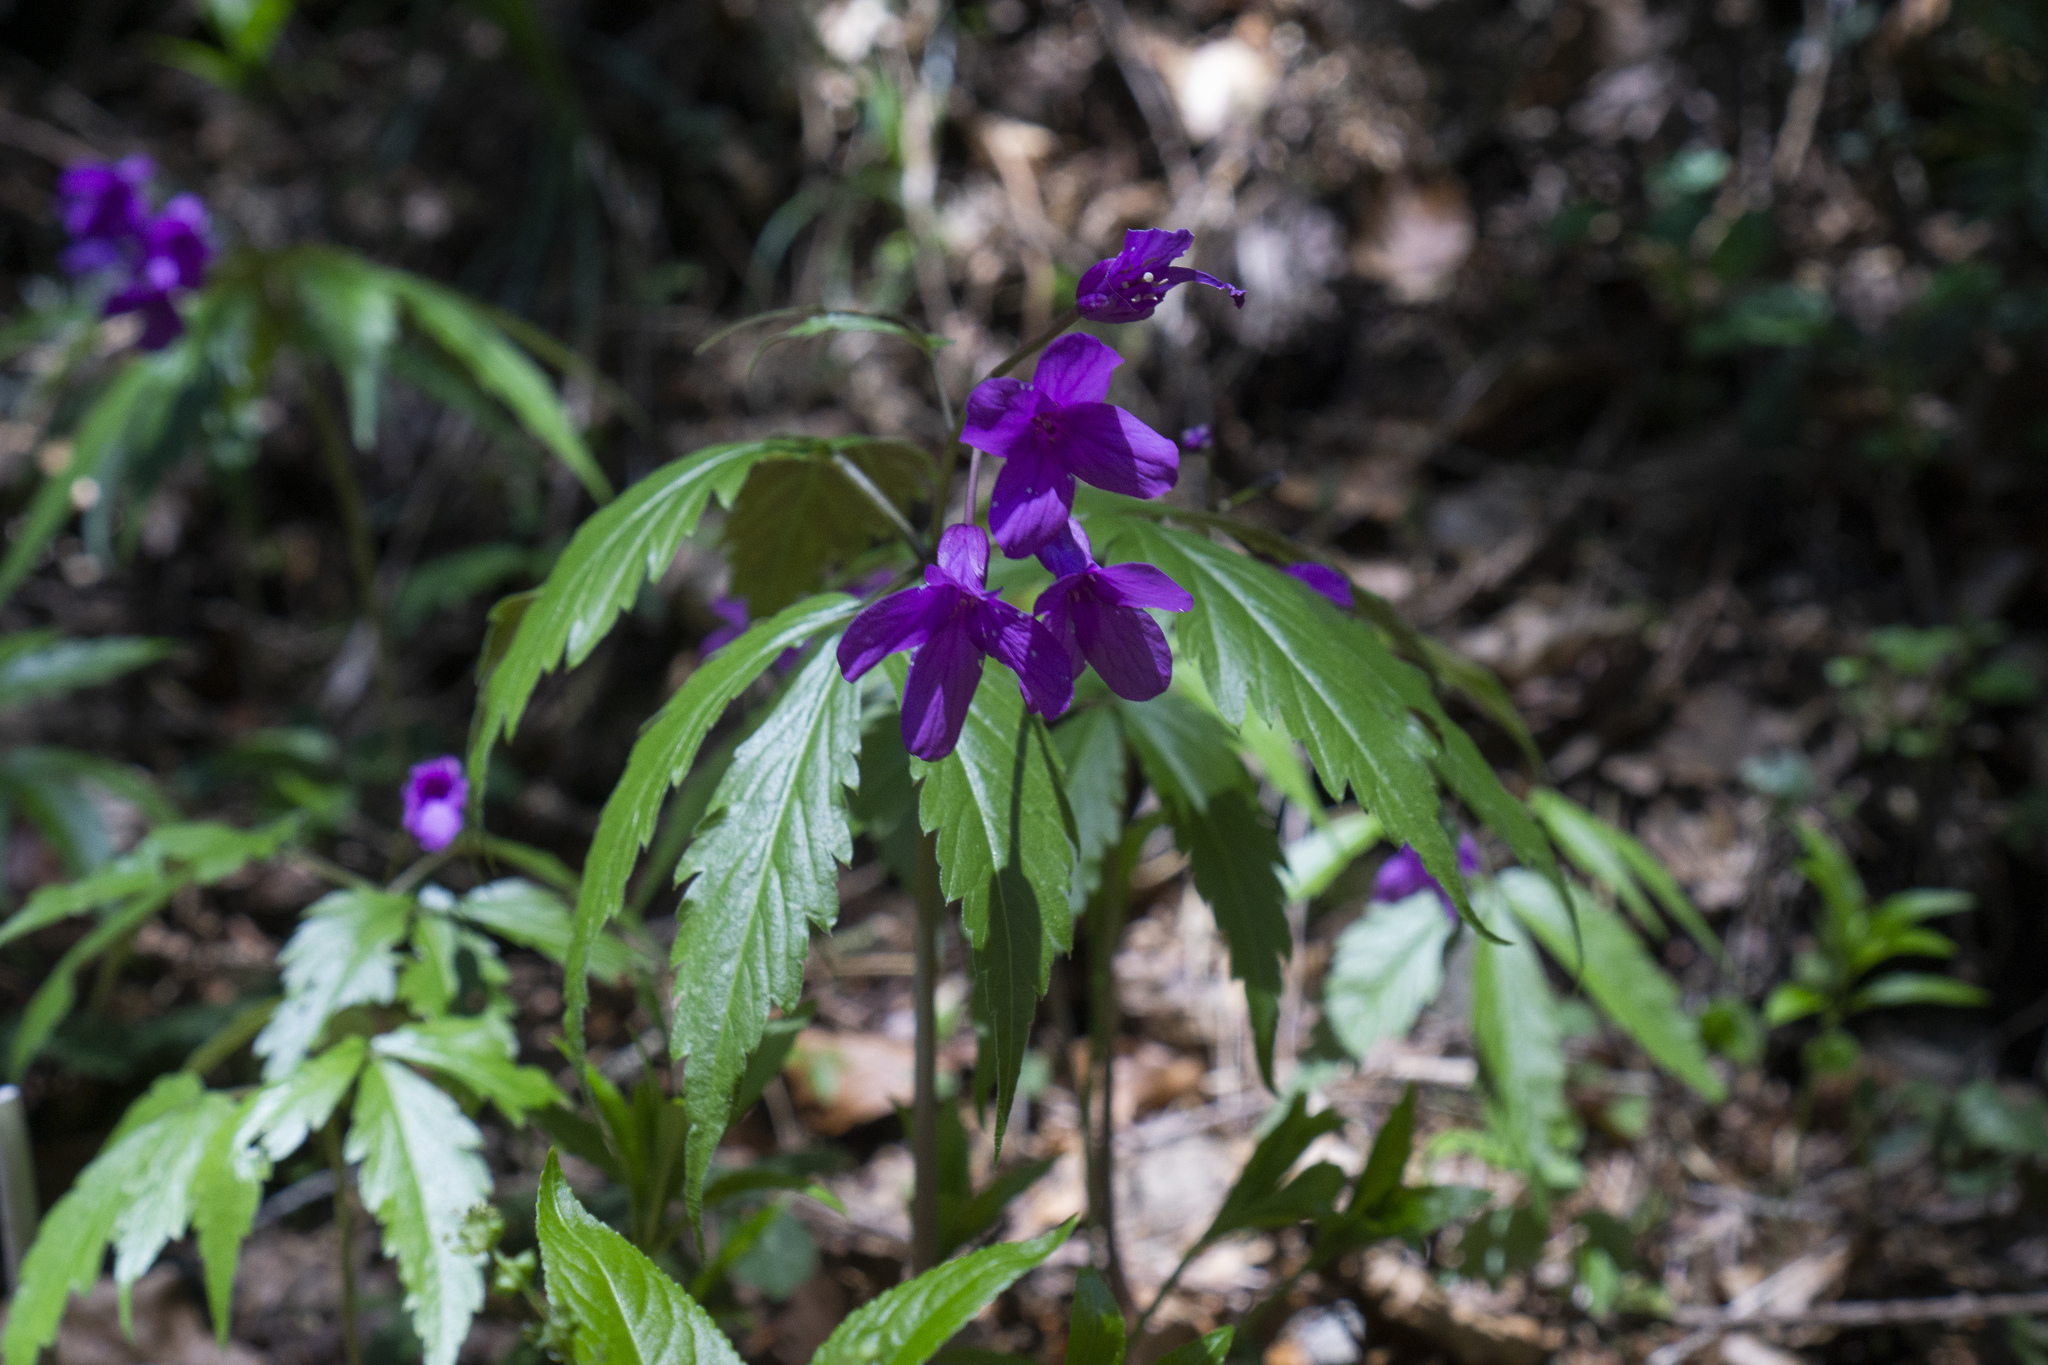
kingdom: Plantae
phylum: Tracheophyta
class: Magnoliopsida
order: Brassicales
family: Brassicaceae
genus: Cardamine
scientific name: Cardamine glanduligera
